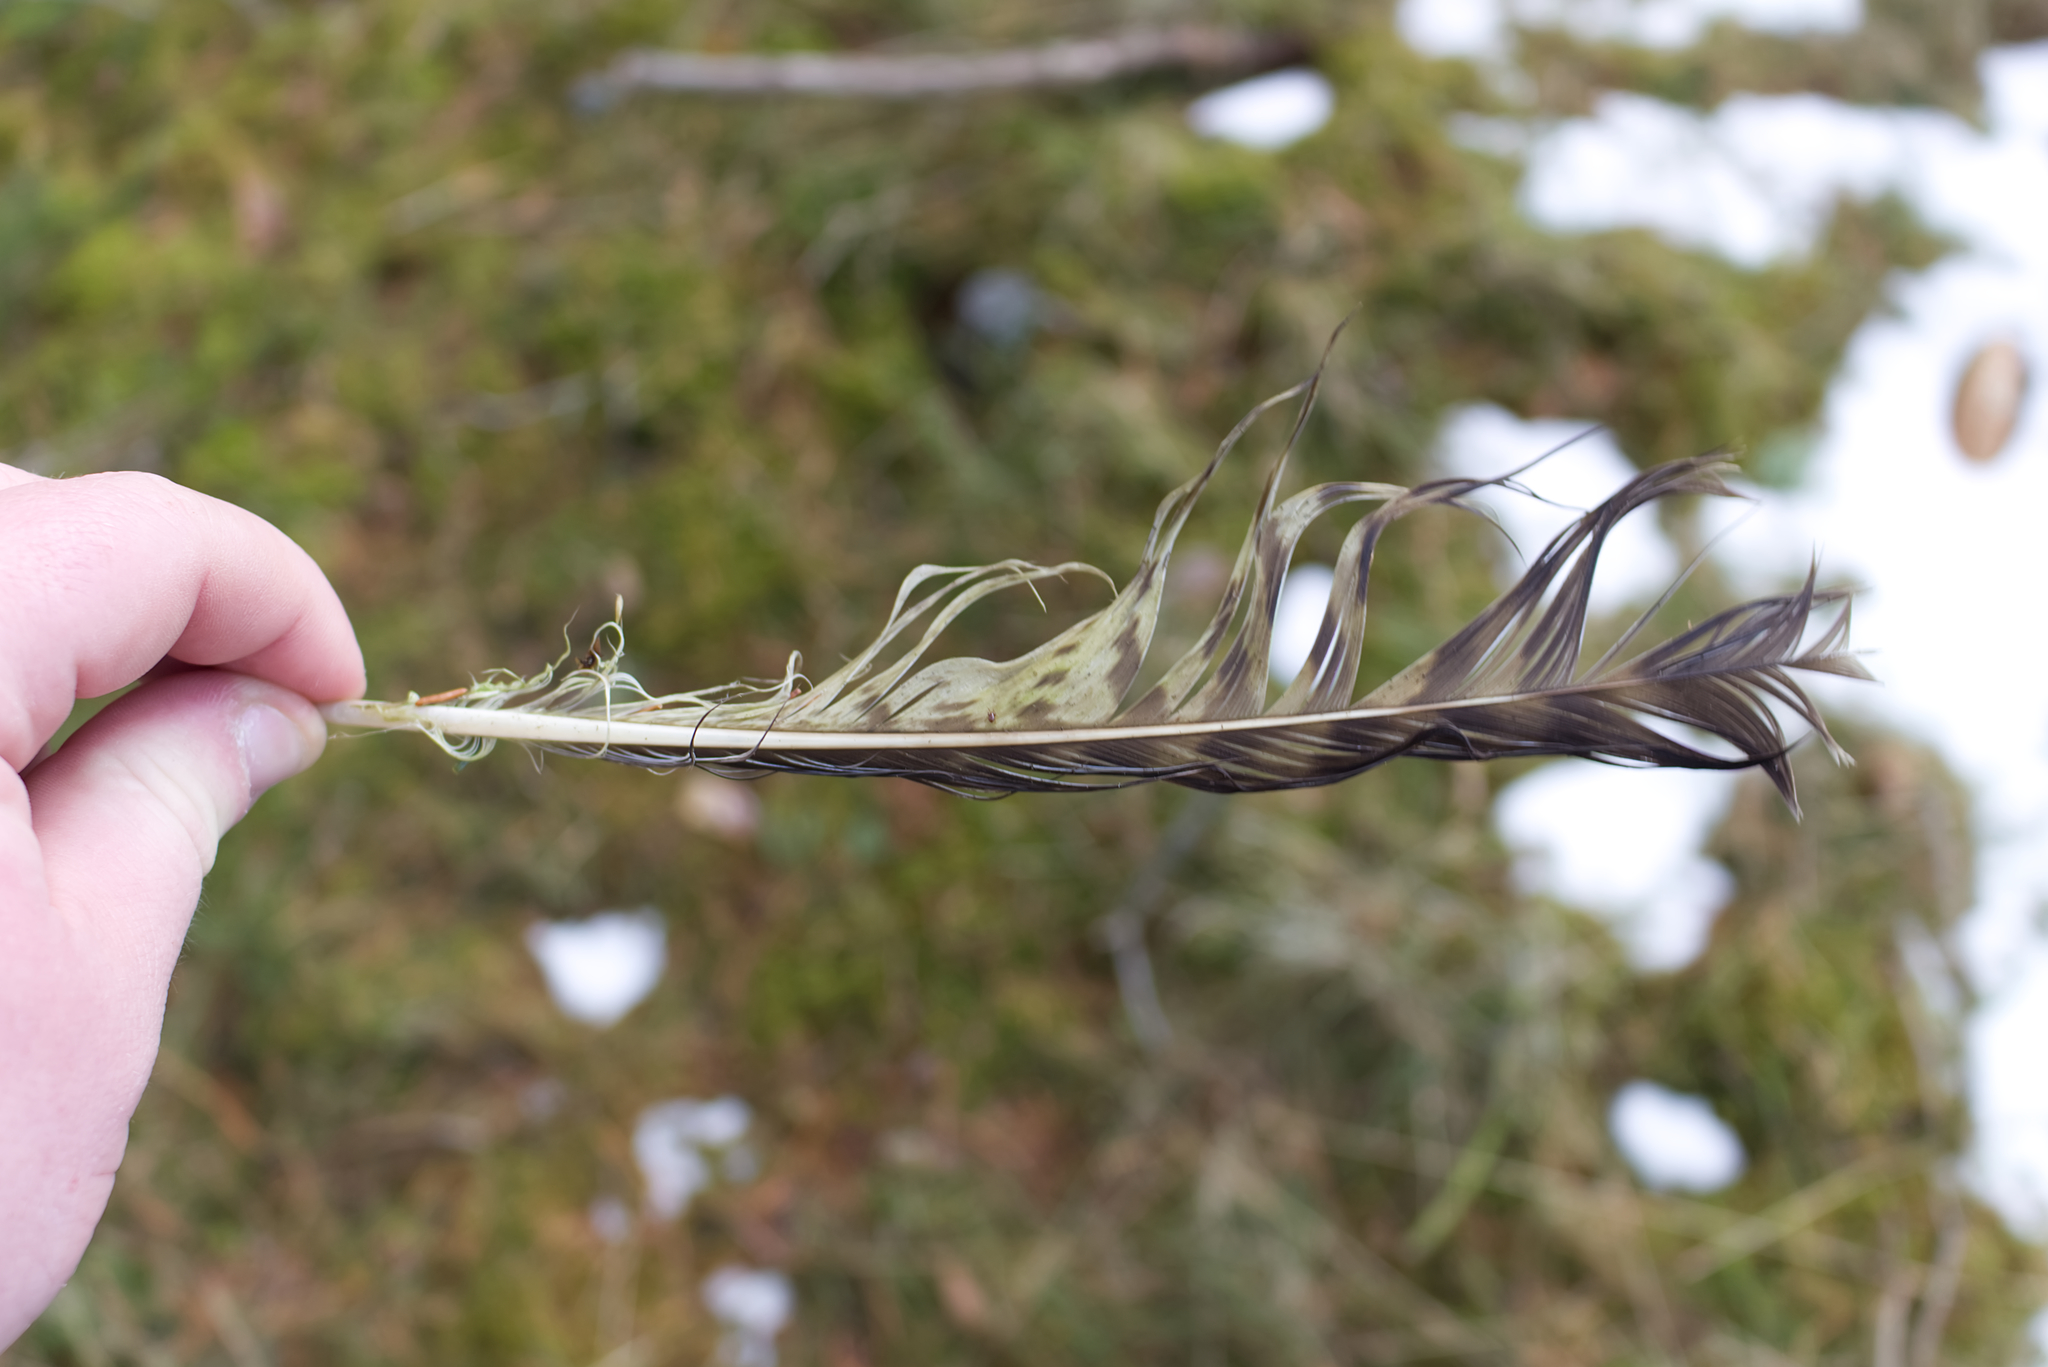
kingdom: Animalia
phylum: Chordata
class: Aves
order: Accipitriformes
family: Accipitridae
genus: Buteo
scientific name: Buteo buteo
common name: Common buzzard
